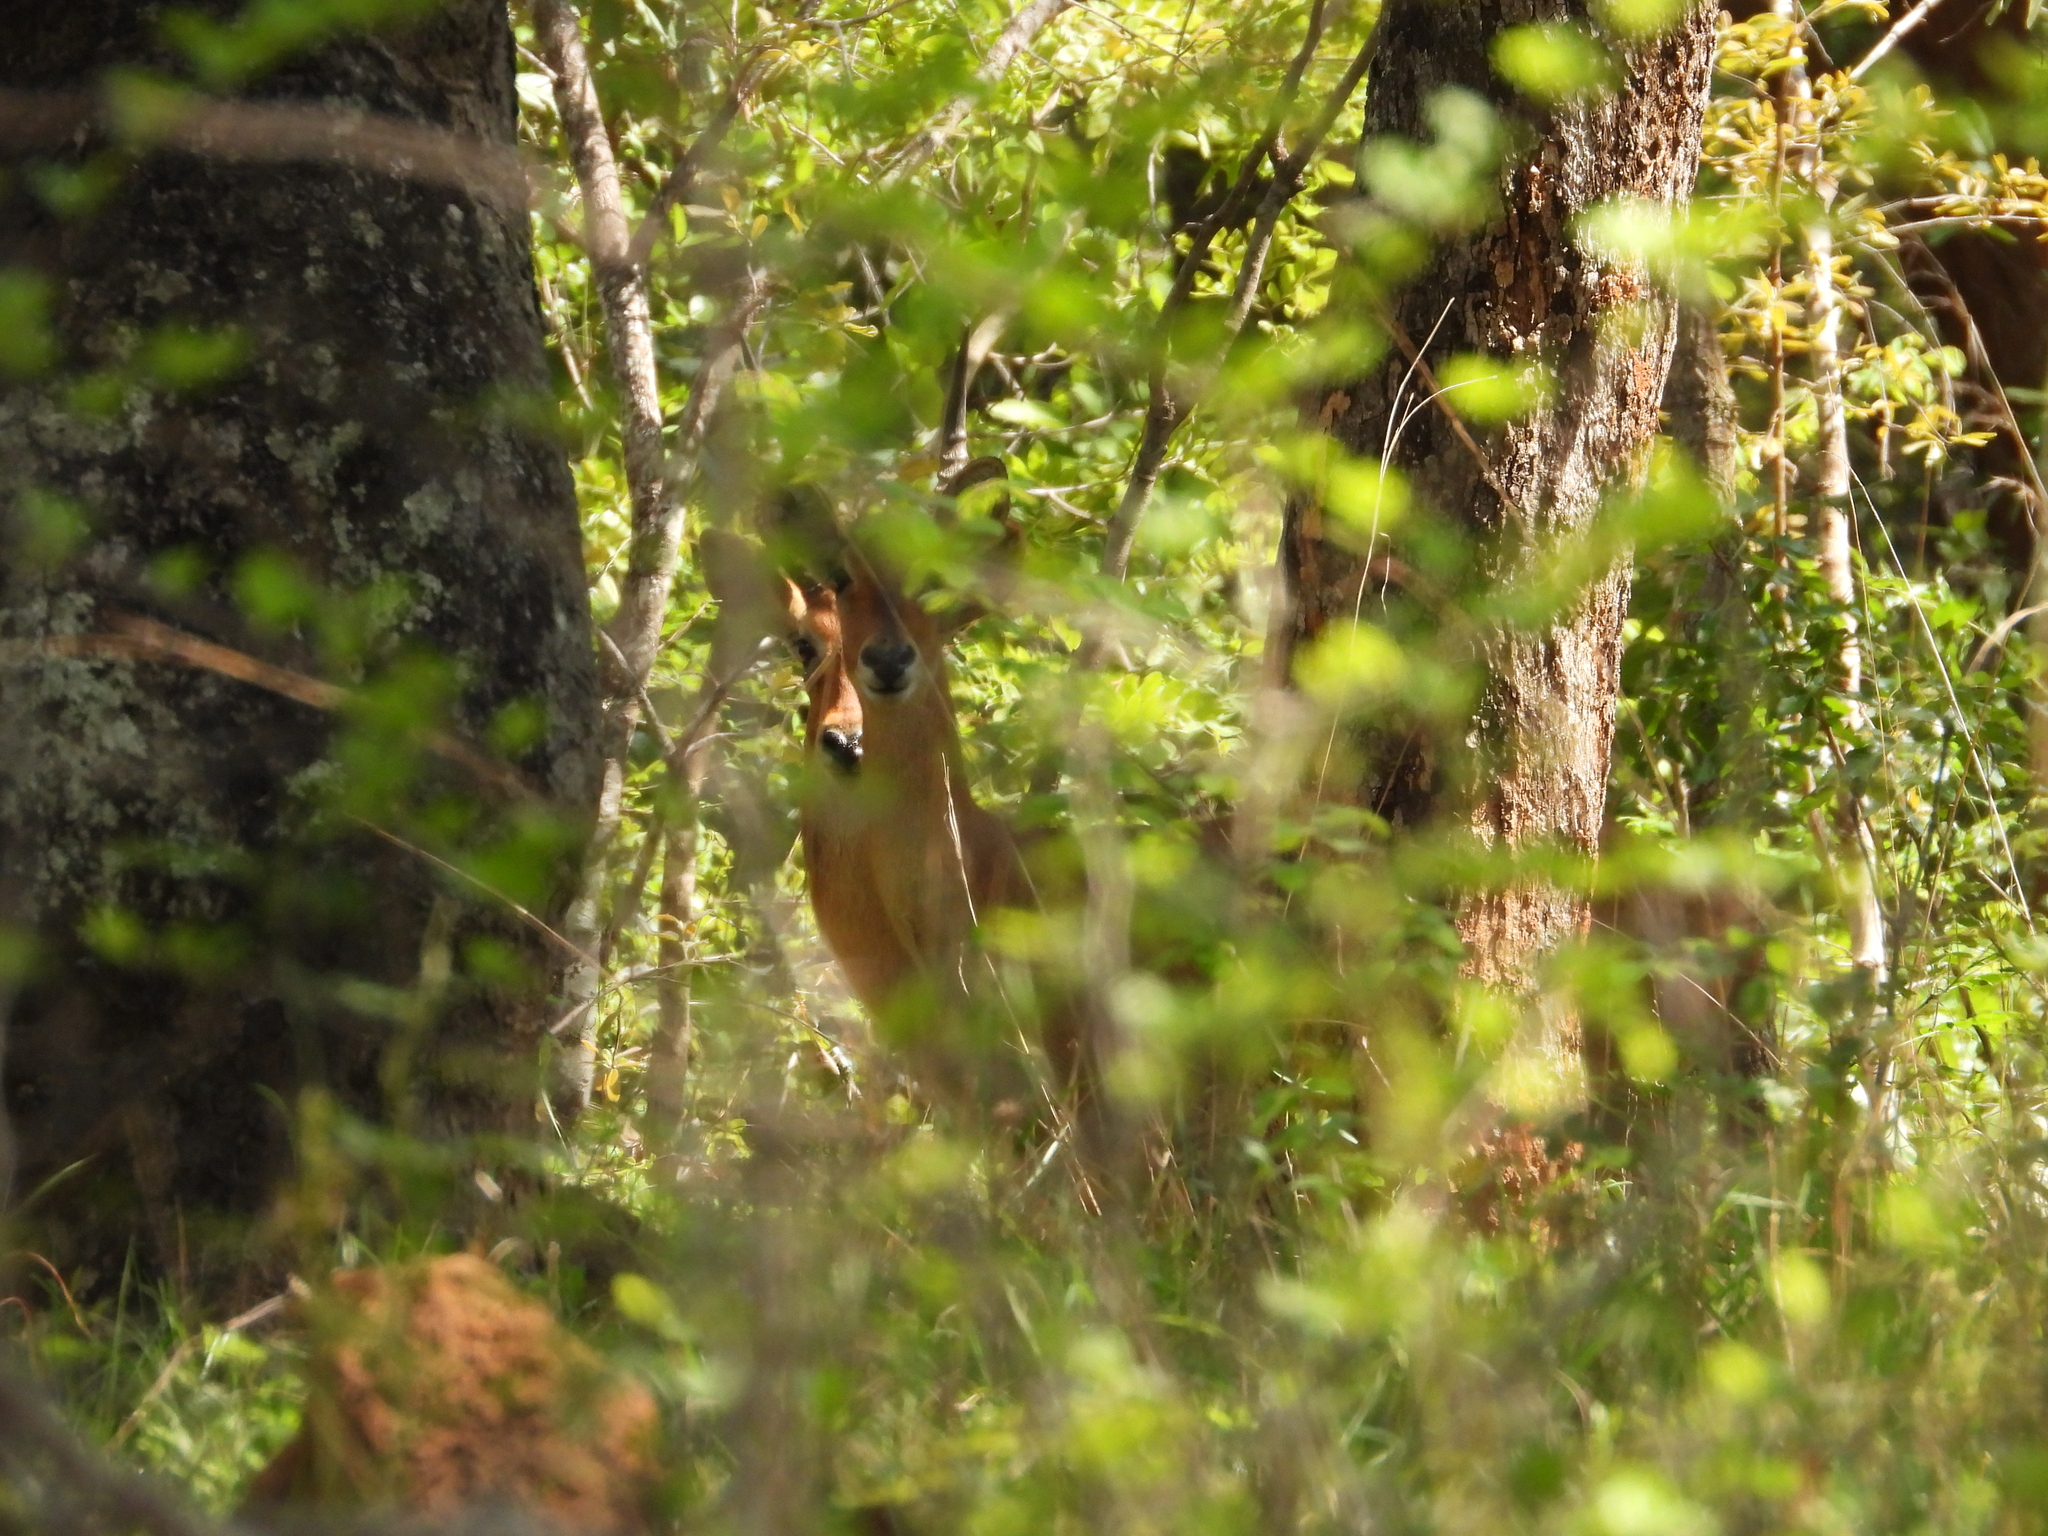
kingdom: Animalia
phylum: Chordata
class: Mammalia
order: Artiodactyla
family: Bovidae
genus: Kobus
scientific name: Kobus vardonii
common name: Puku
